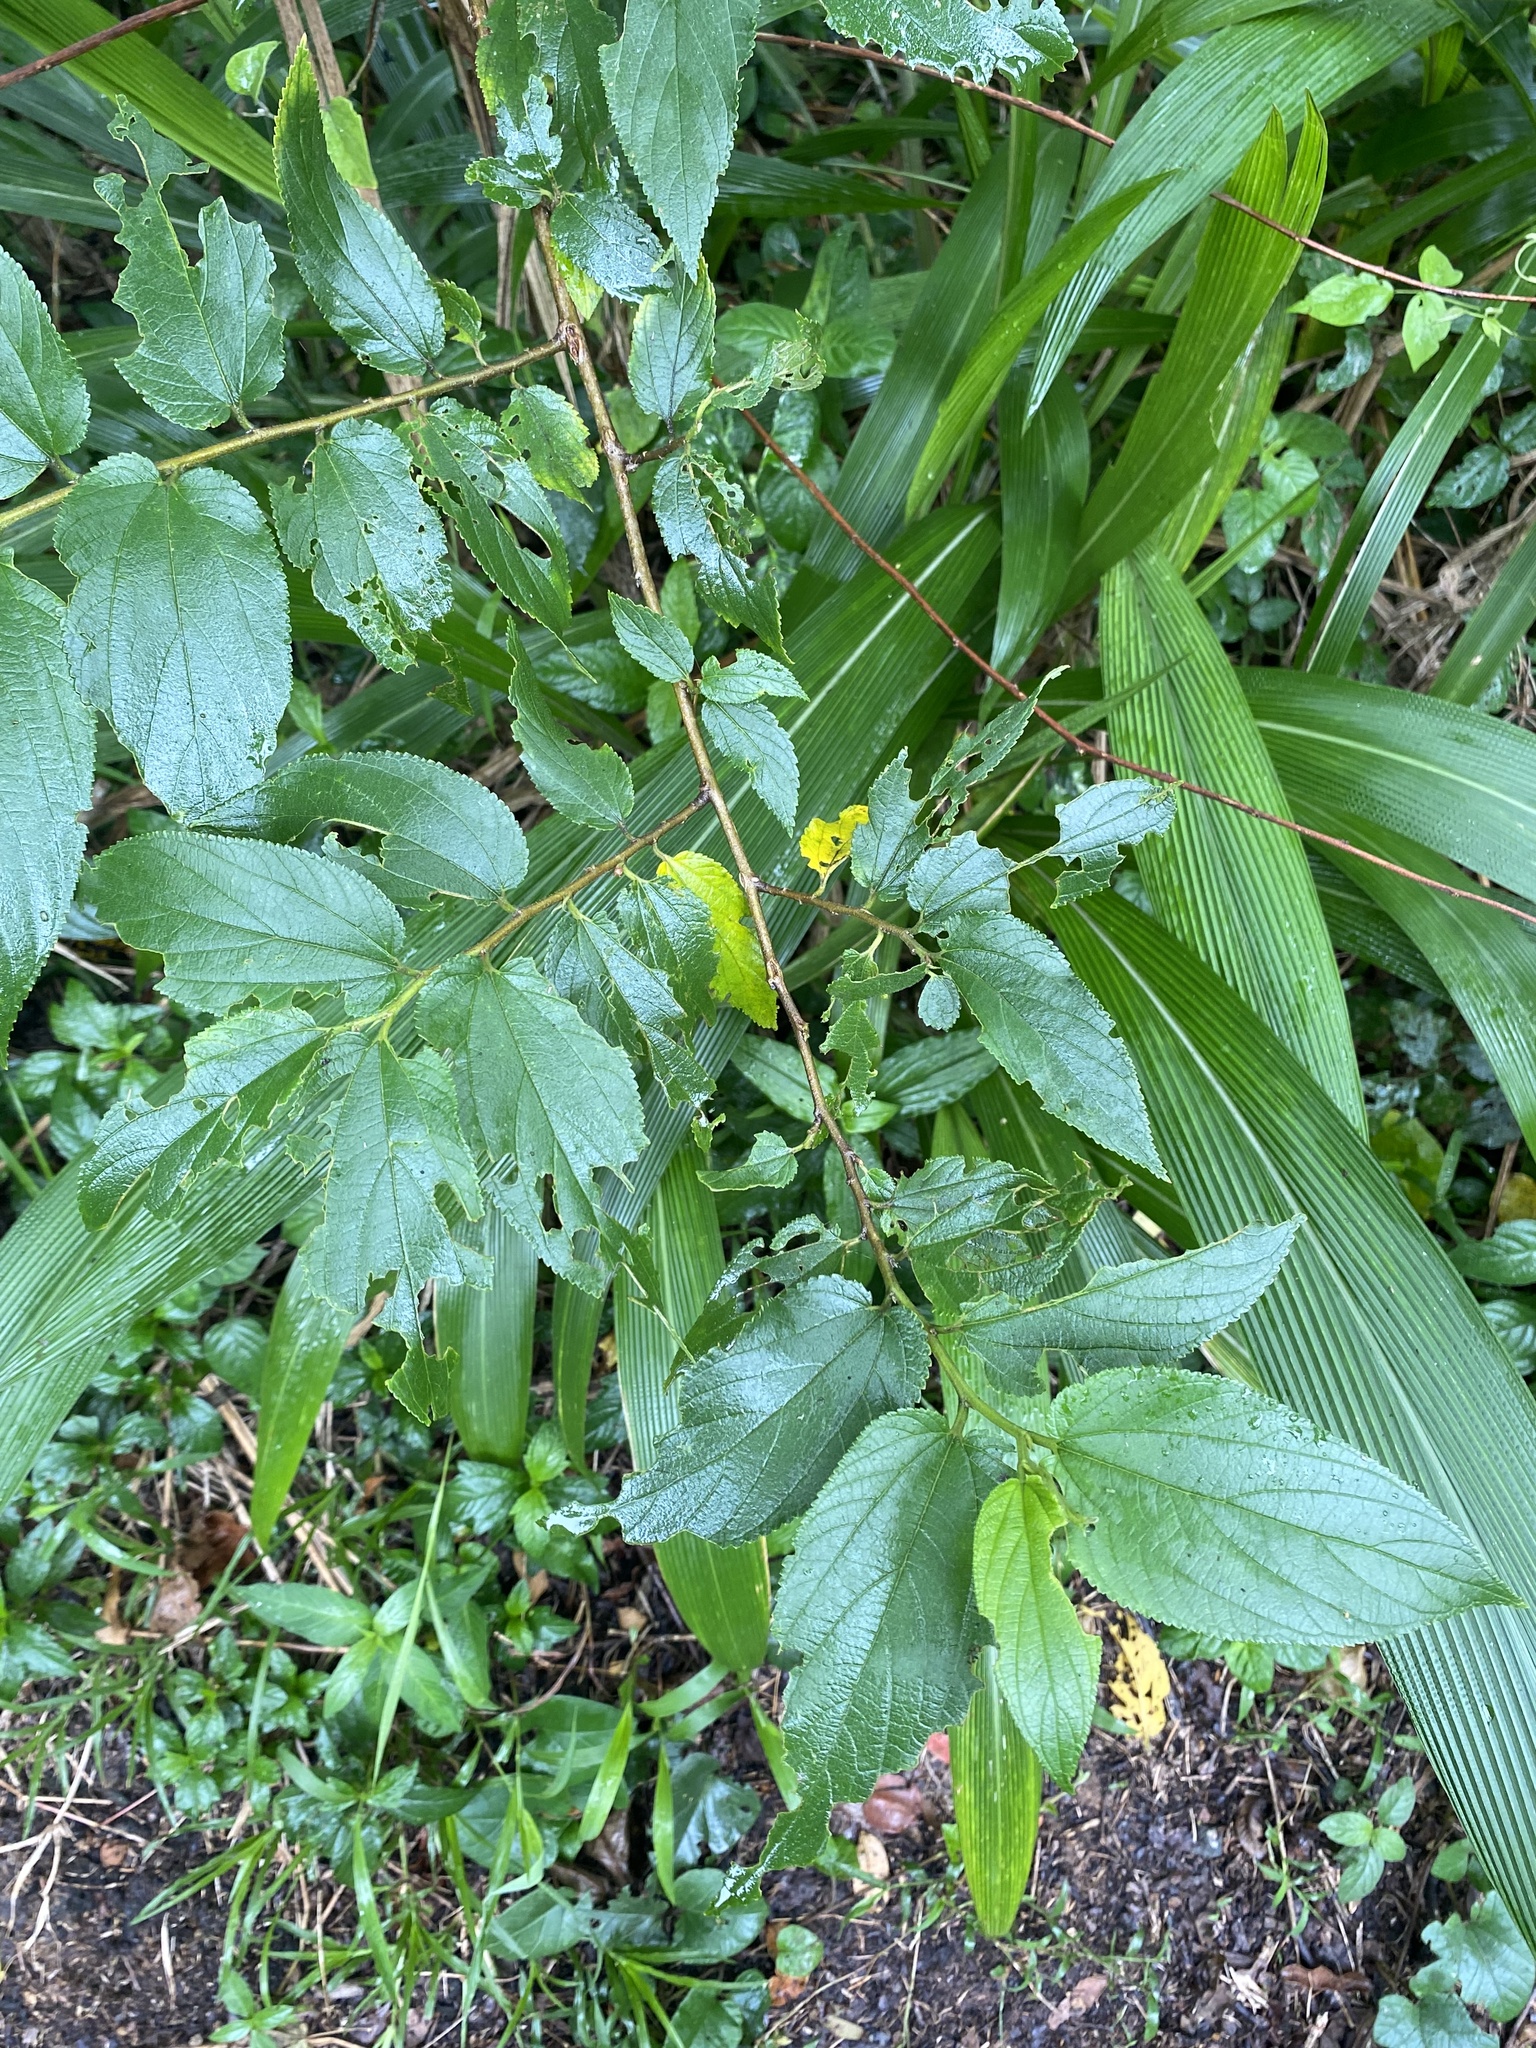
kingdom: Plantae
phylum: Tracheophyta
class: Magnoliopsida
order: Rosales
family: Cannabaceae
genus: Trema
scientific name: Trema orientale
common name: Indian charcoal tree
